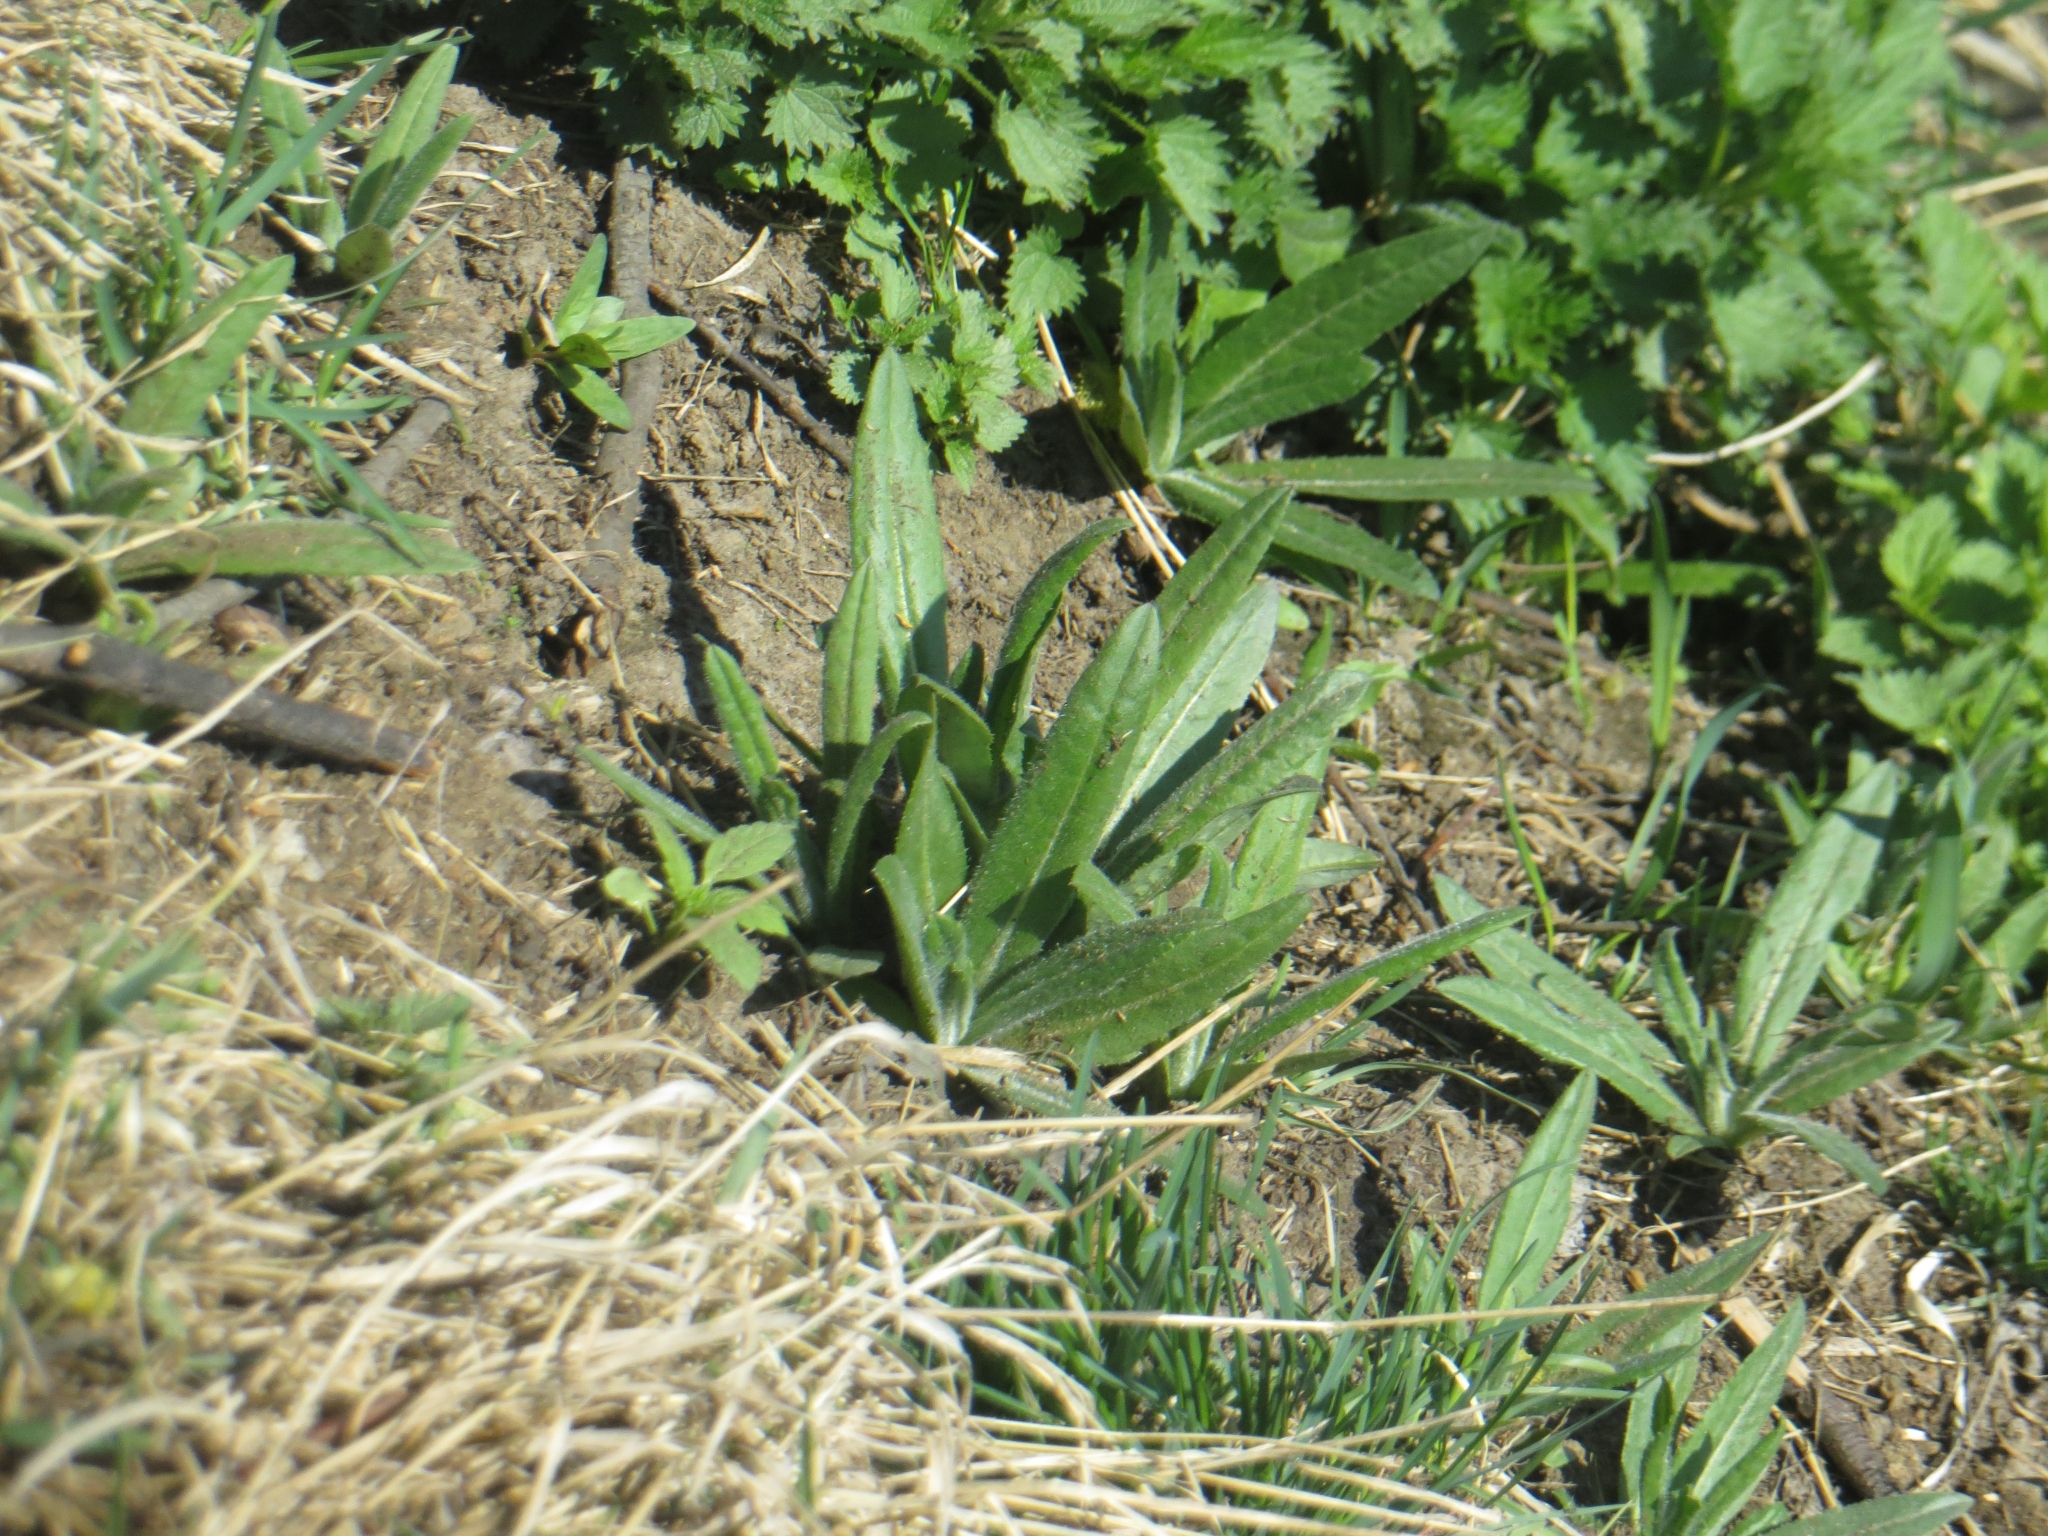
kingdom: Plantae
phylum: Tracheophyta
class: Magnoliopsida
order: Asterales
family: Asteraceae
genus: Cirsium
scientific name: Cirsium arvense
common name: Creeping thistle
